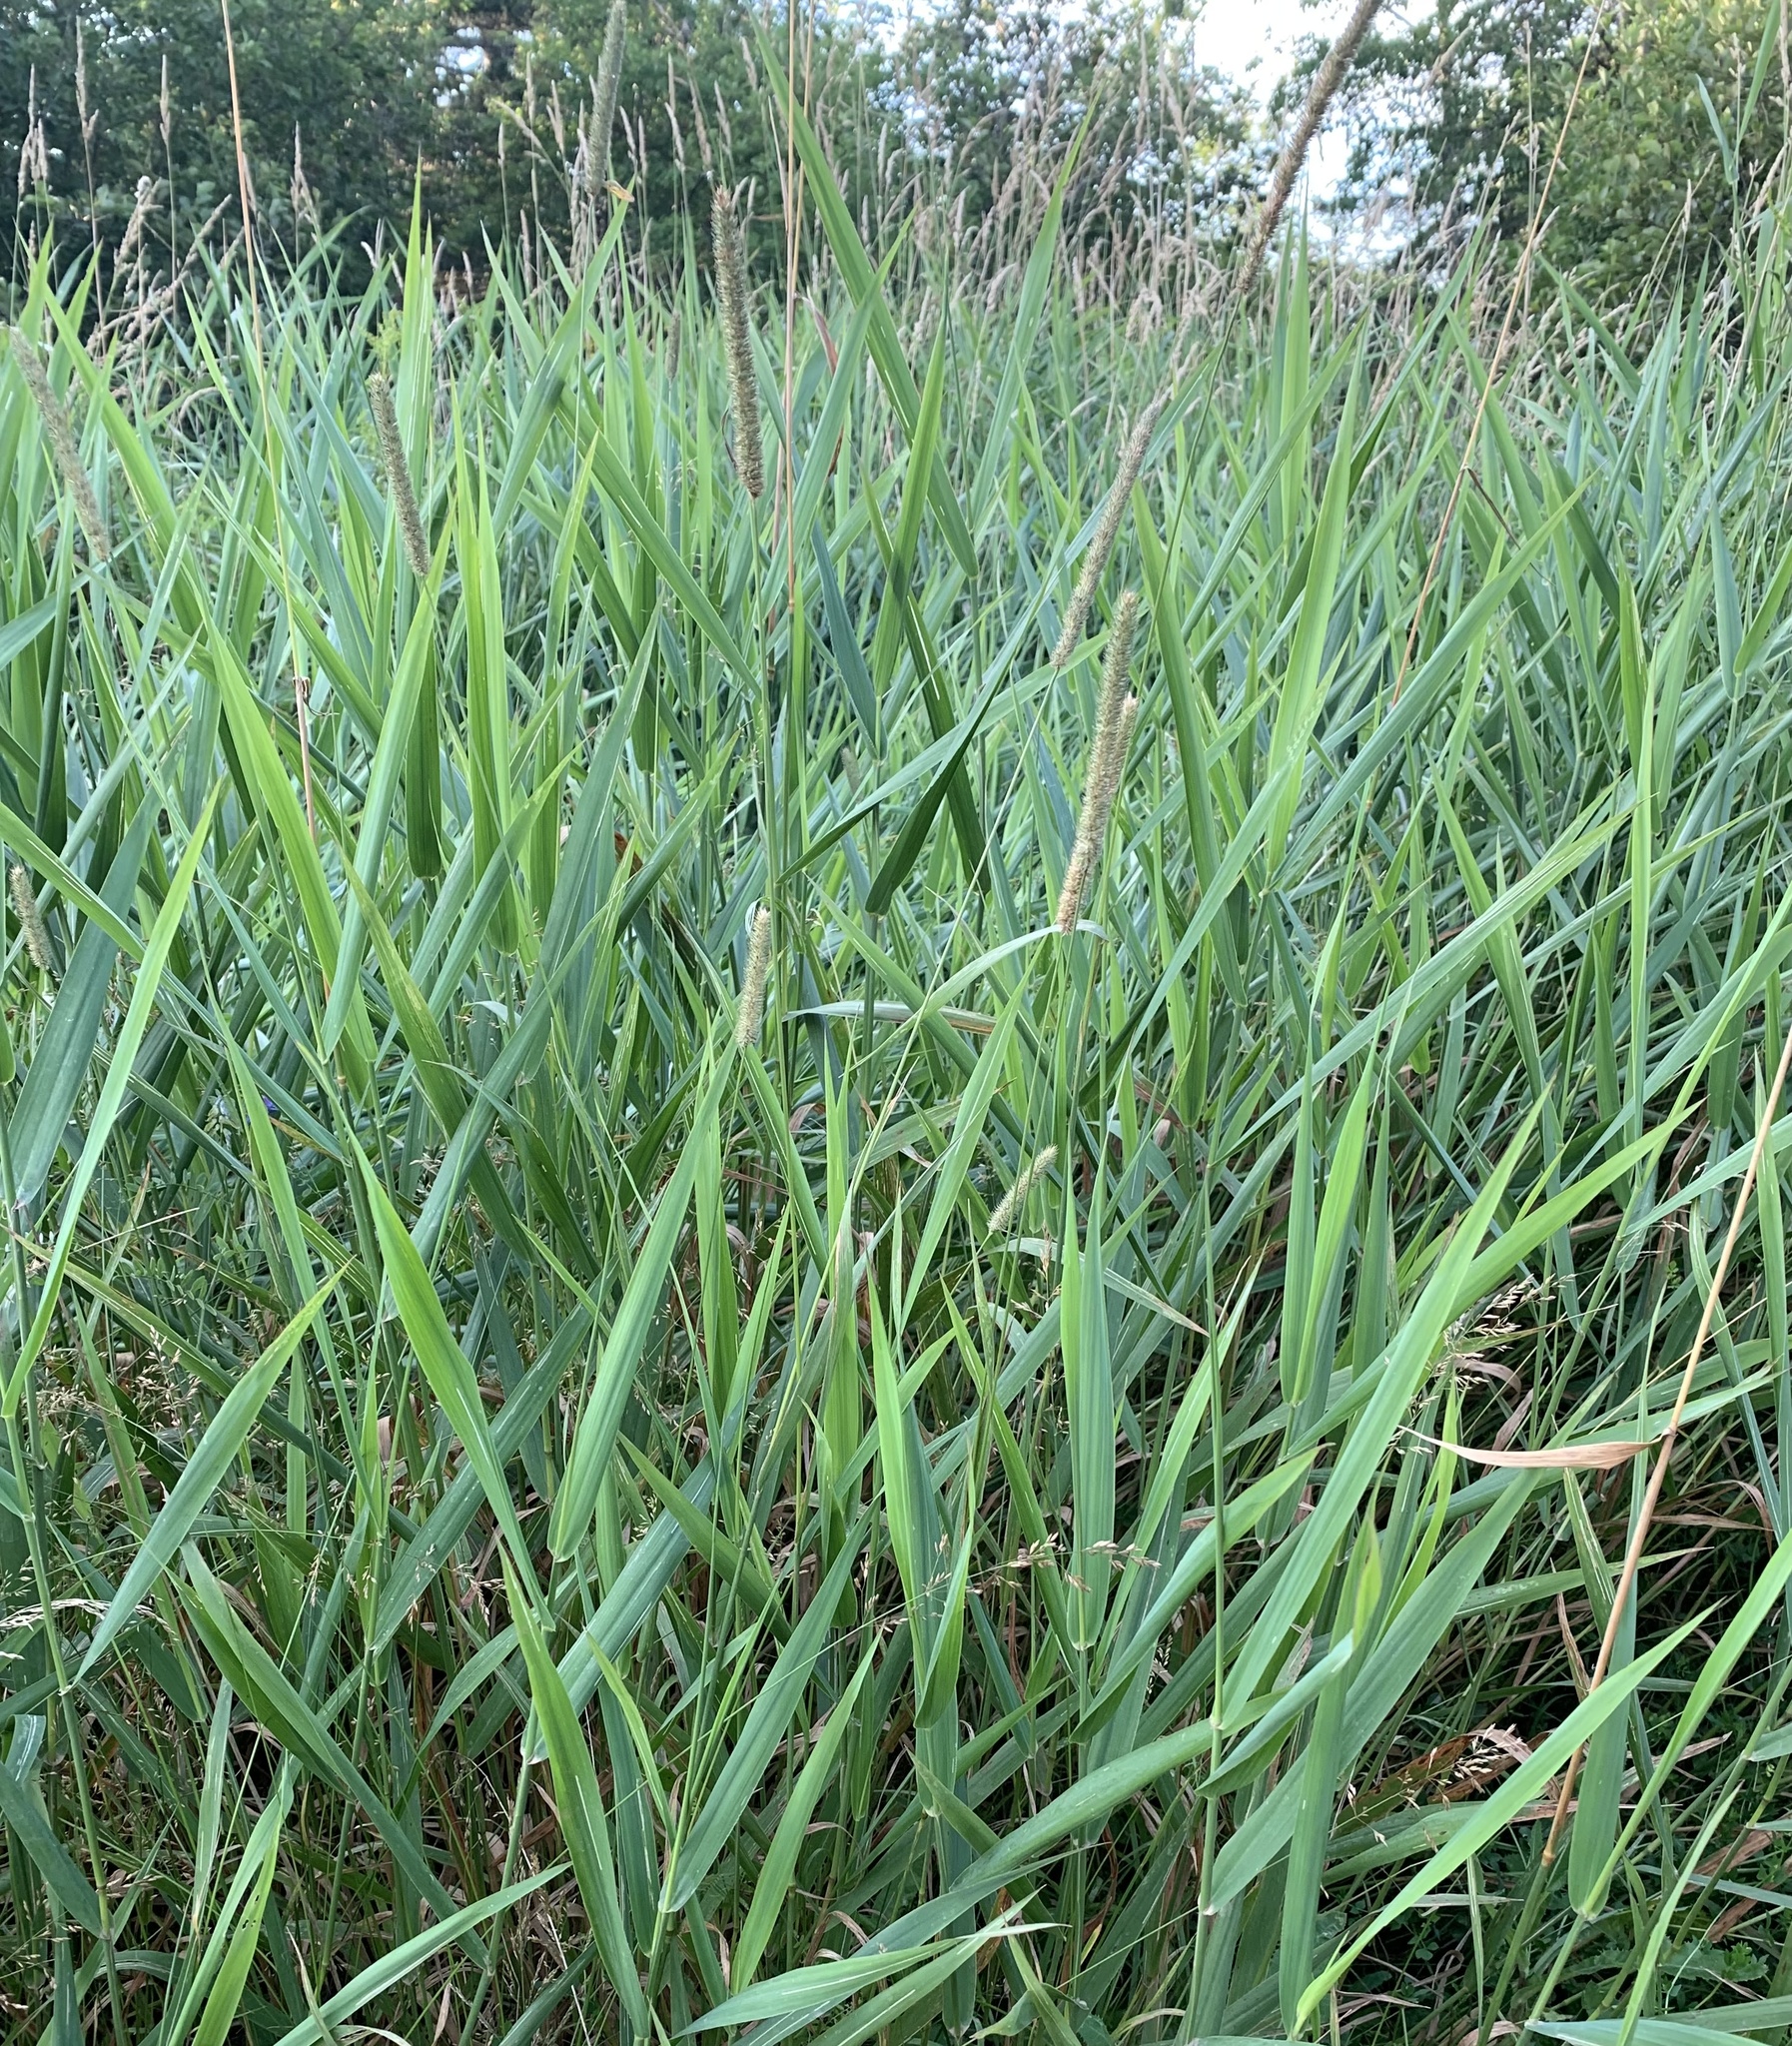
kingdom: Plantae
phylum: Tracheophyta
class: Liliopsida
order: Poales
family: Poaceae
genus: Phleum
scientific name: Phleum pratense
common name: Timothy grass
